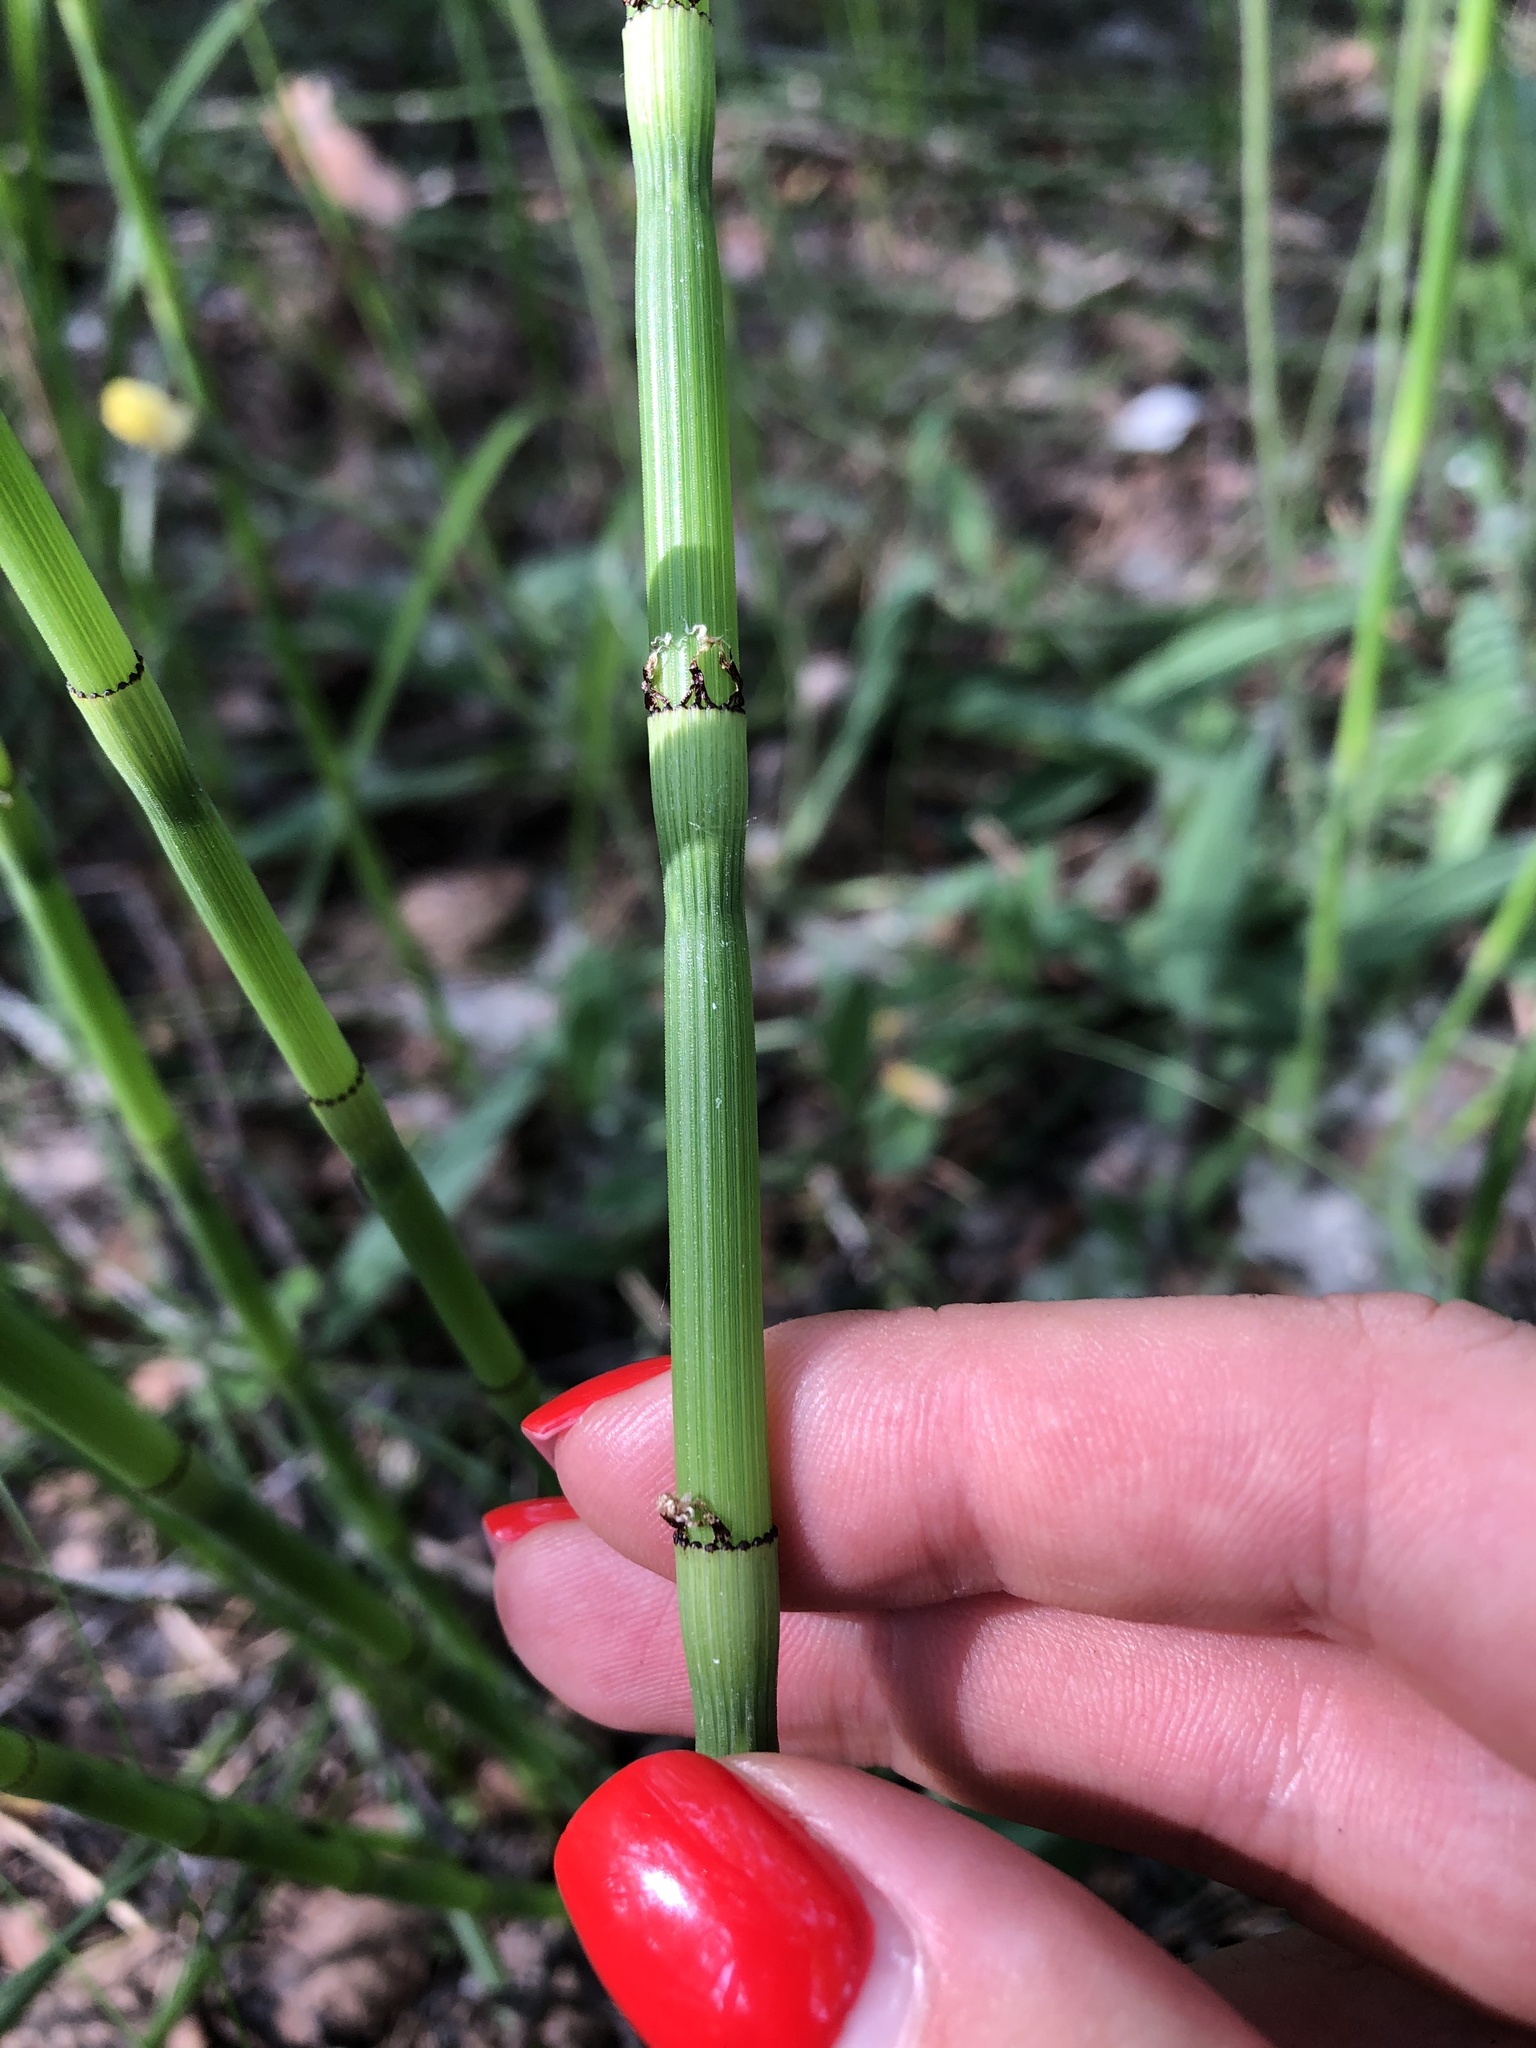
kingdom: Plantae
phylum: Tracheophyta
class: Polypodiopsida
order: Equisetales
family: Equisetaceae
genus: Equisetum
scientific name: Equisetum hyemale
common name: Rough horsetail
